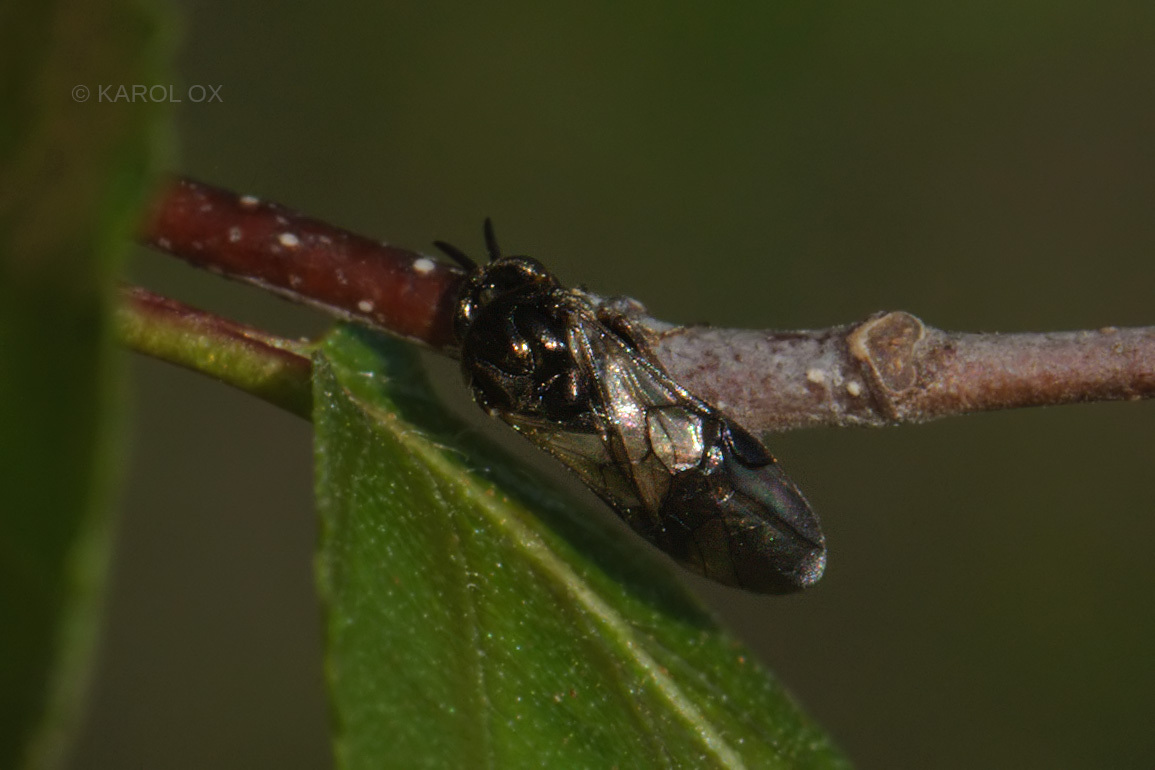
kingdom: Animalia
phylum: Arthropoda
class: Insecta
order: Hymenoptera
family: Argidae
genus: Sterictiphora
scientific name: Sterictiphora geminata
